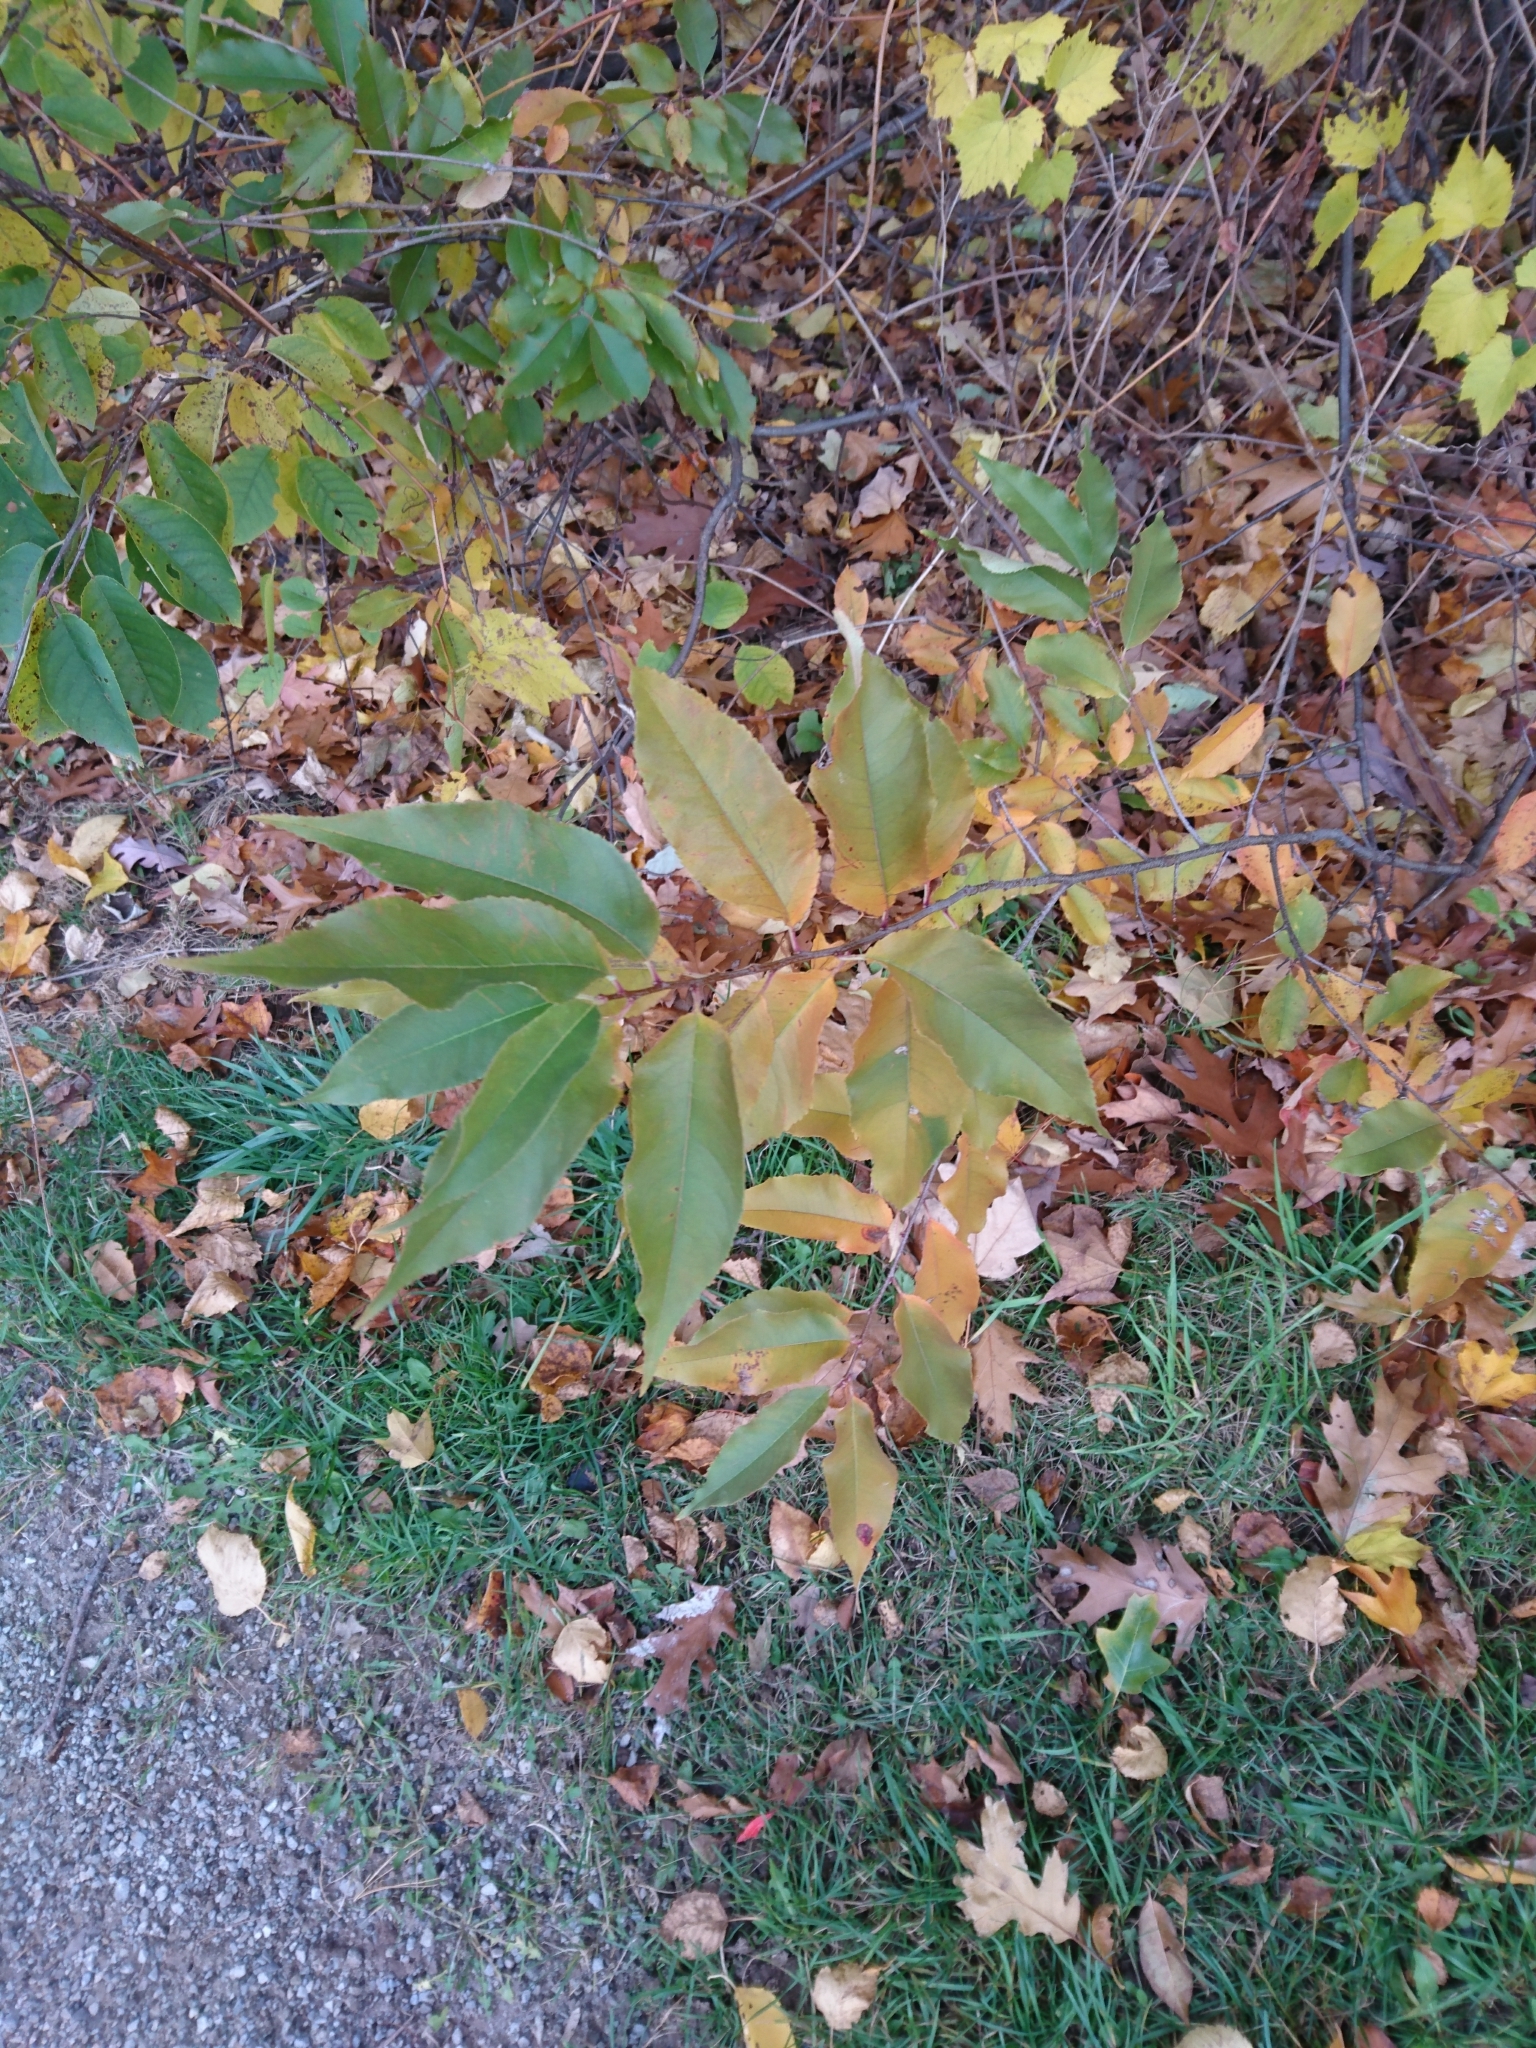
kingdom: Plantae
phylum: Tracheophyta
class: Magnoliopsida
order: Rosales
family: Rosaceae
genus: Prunus
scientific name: Prunus serotina
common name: Black cherry
